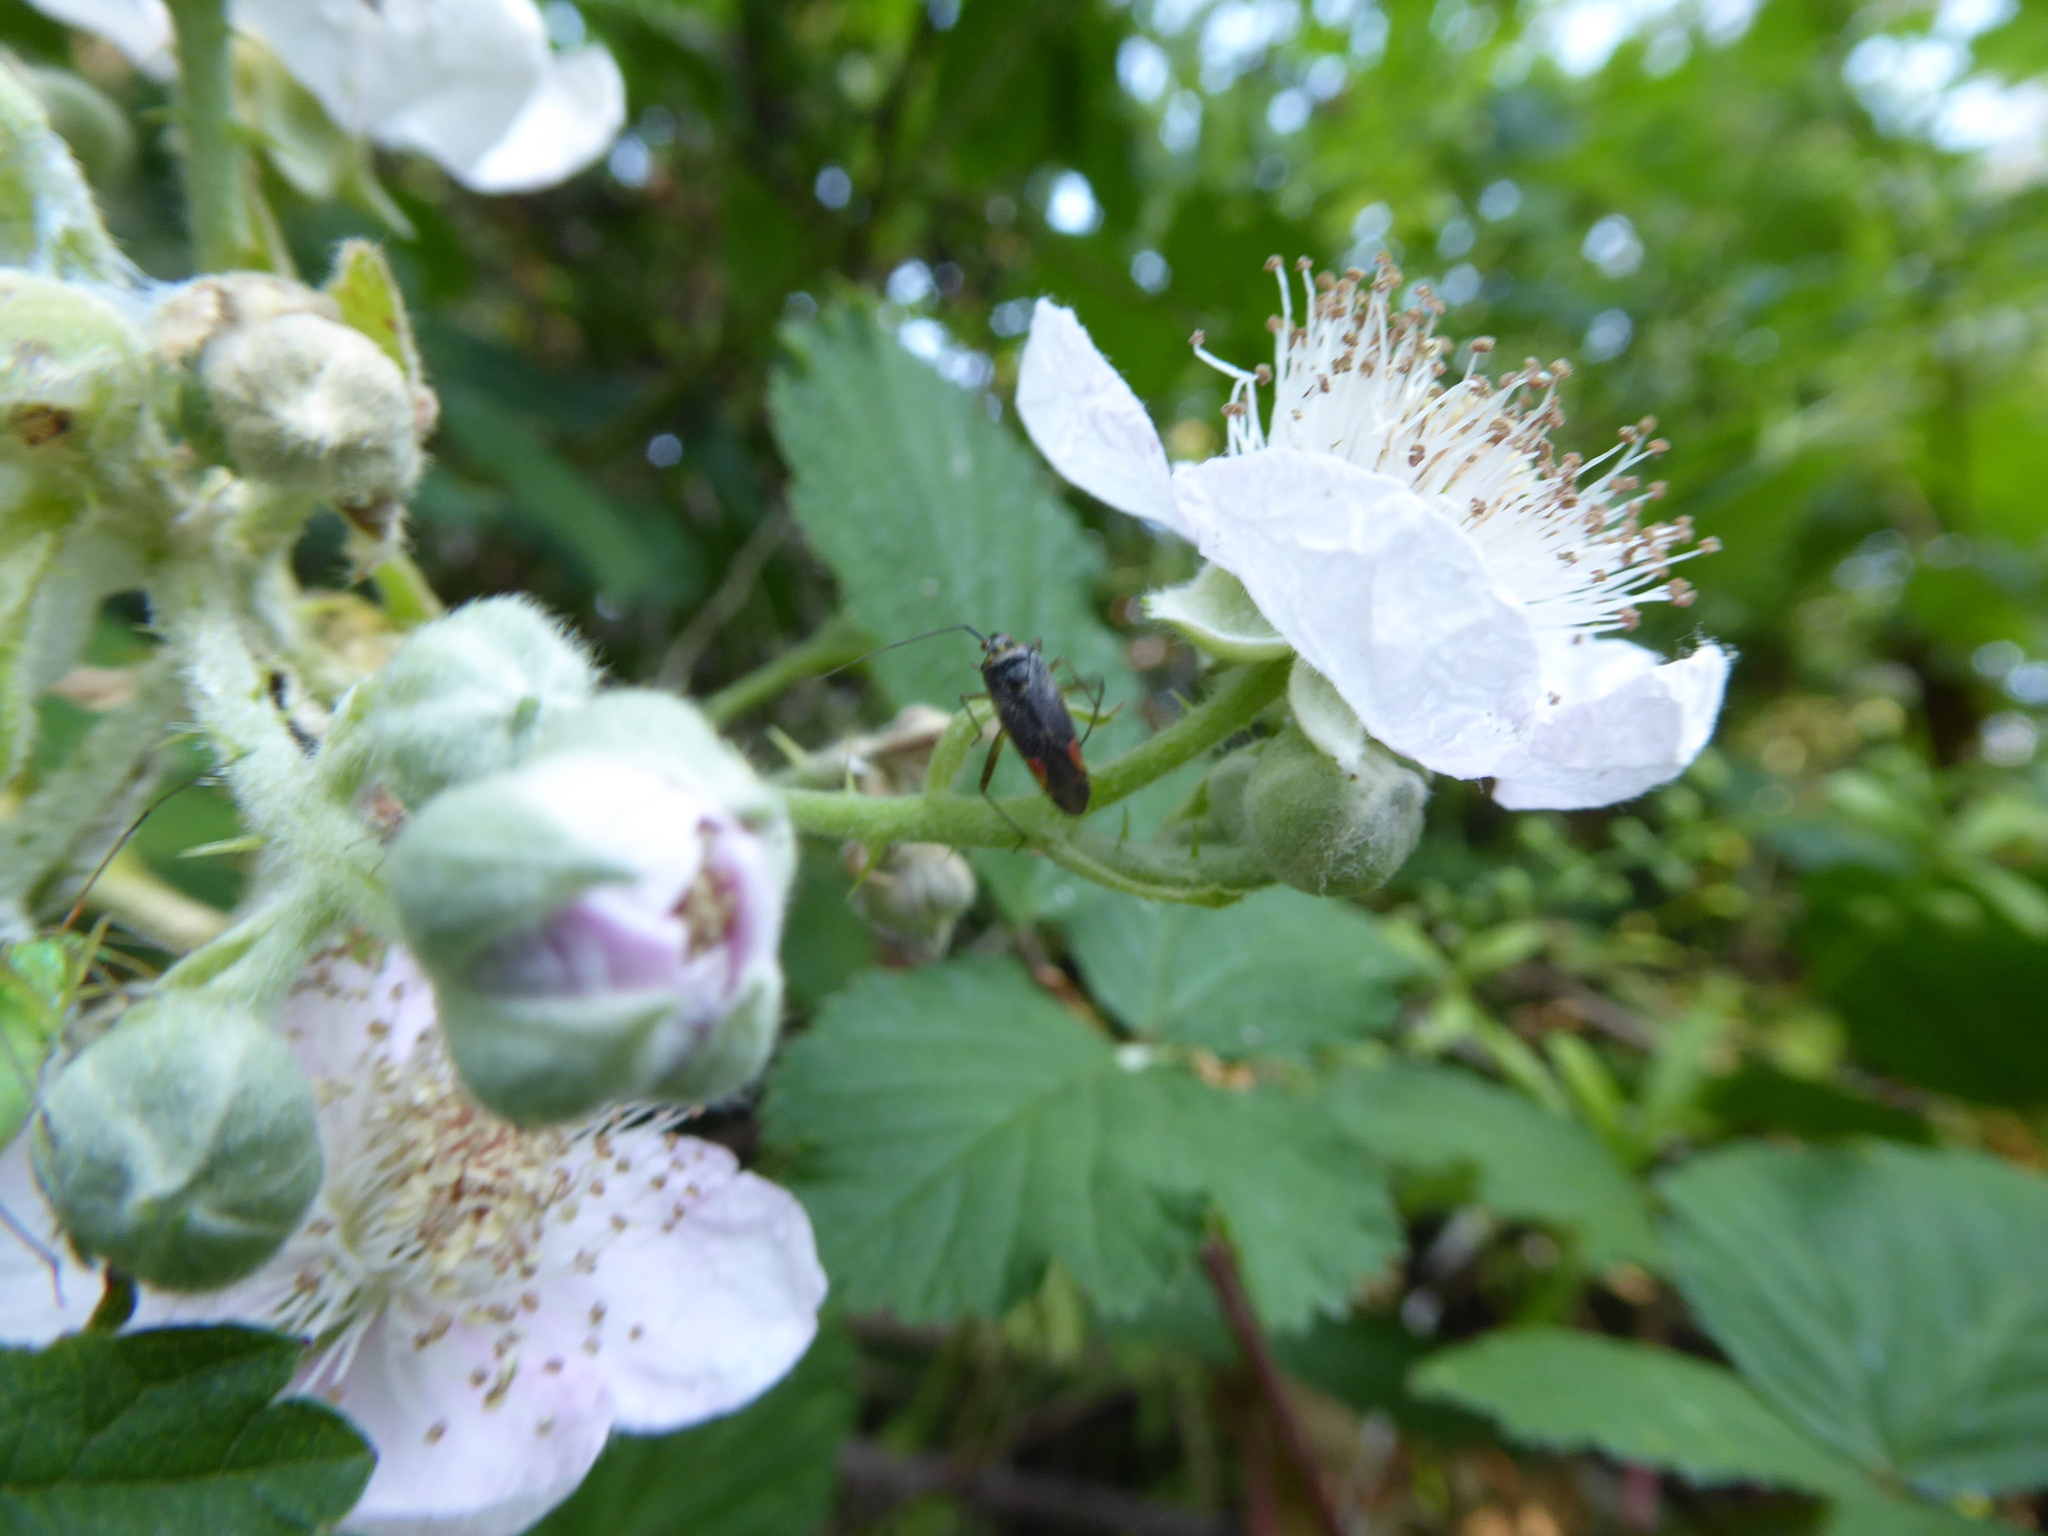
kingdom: Animalia
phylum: Arthropoda
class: Insecta
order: Hemiptera
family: Miridae
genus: Closterotomus
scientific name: Closterotomus trivialis
